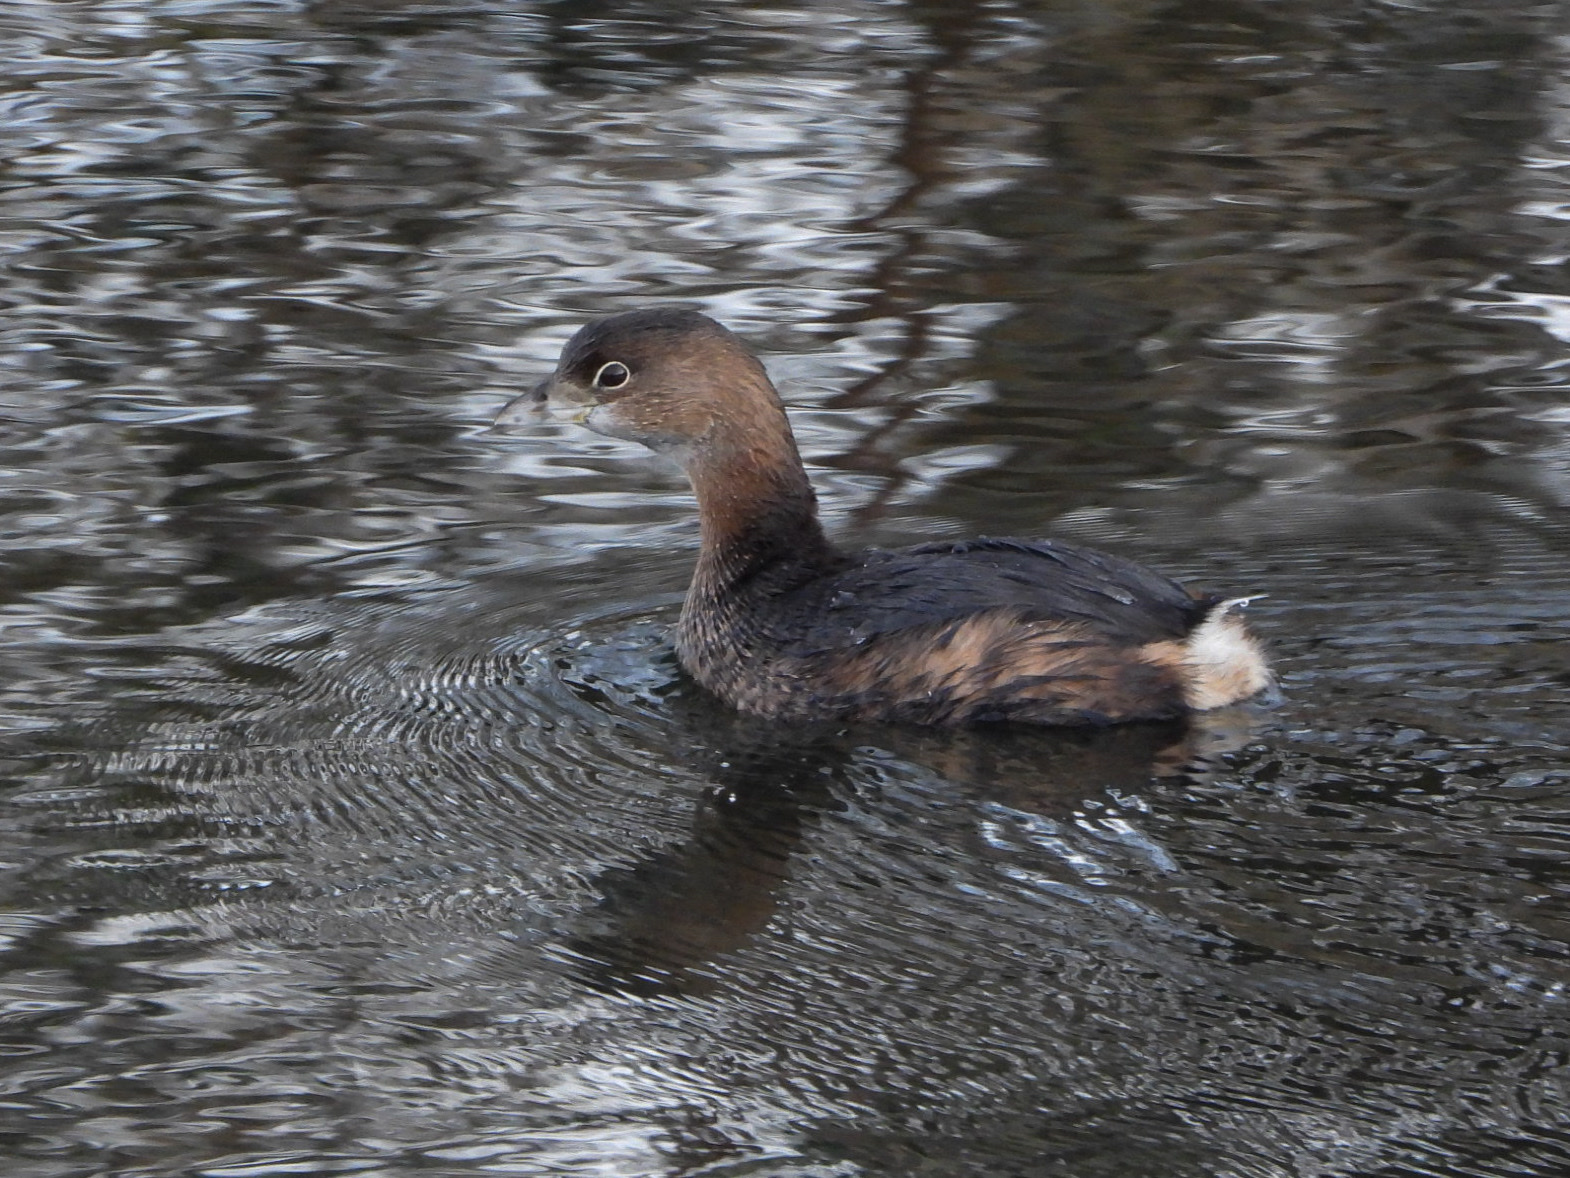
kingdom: Animalia
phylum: Chordata
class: Aves
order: Podicipediformes
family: Podicipedidae
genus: Podilymbus
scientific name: Podilymbus podiceps
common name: Pied-billed grebe
